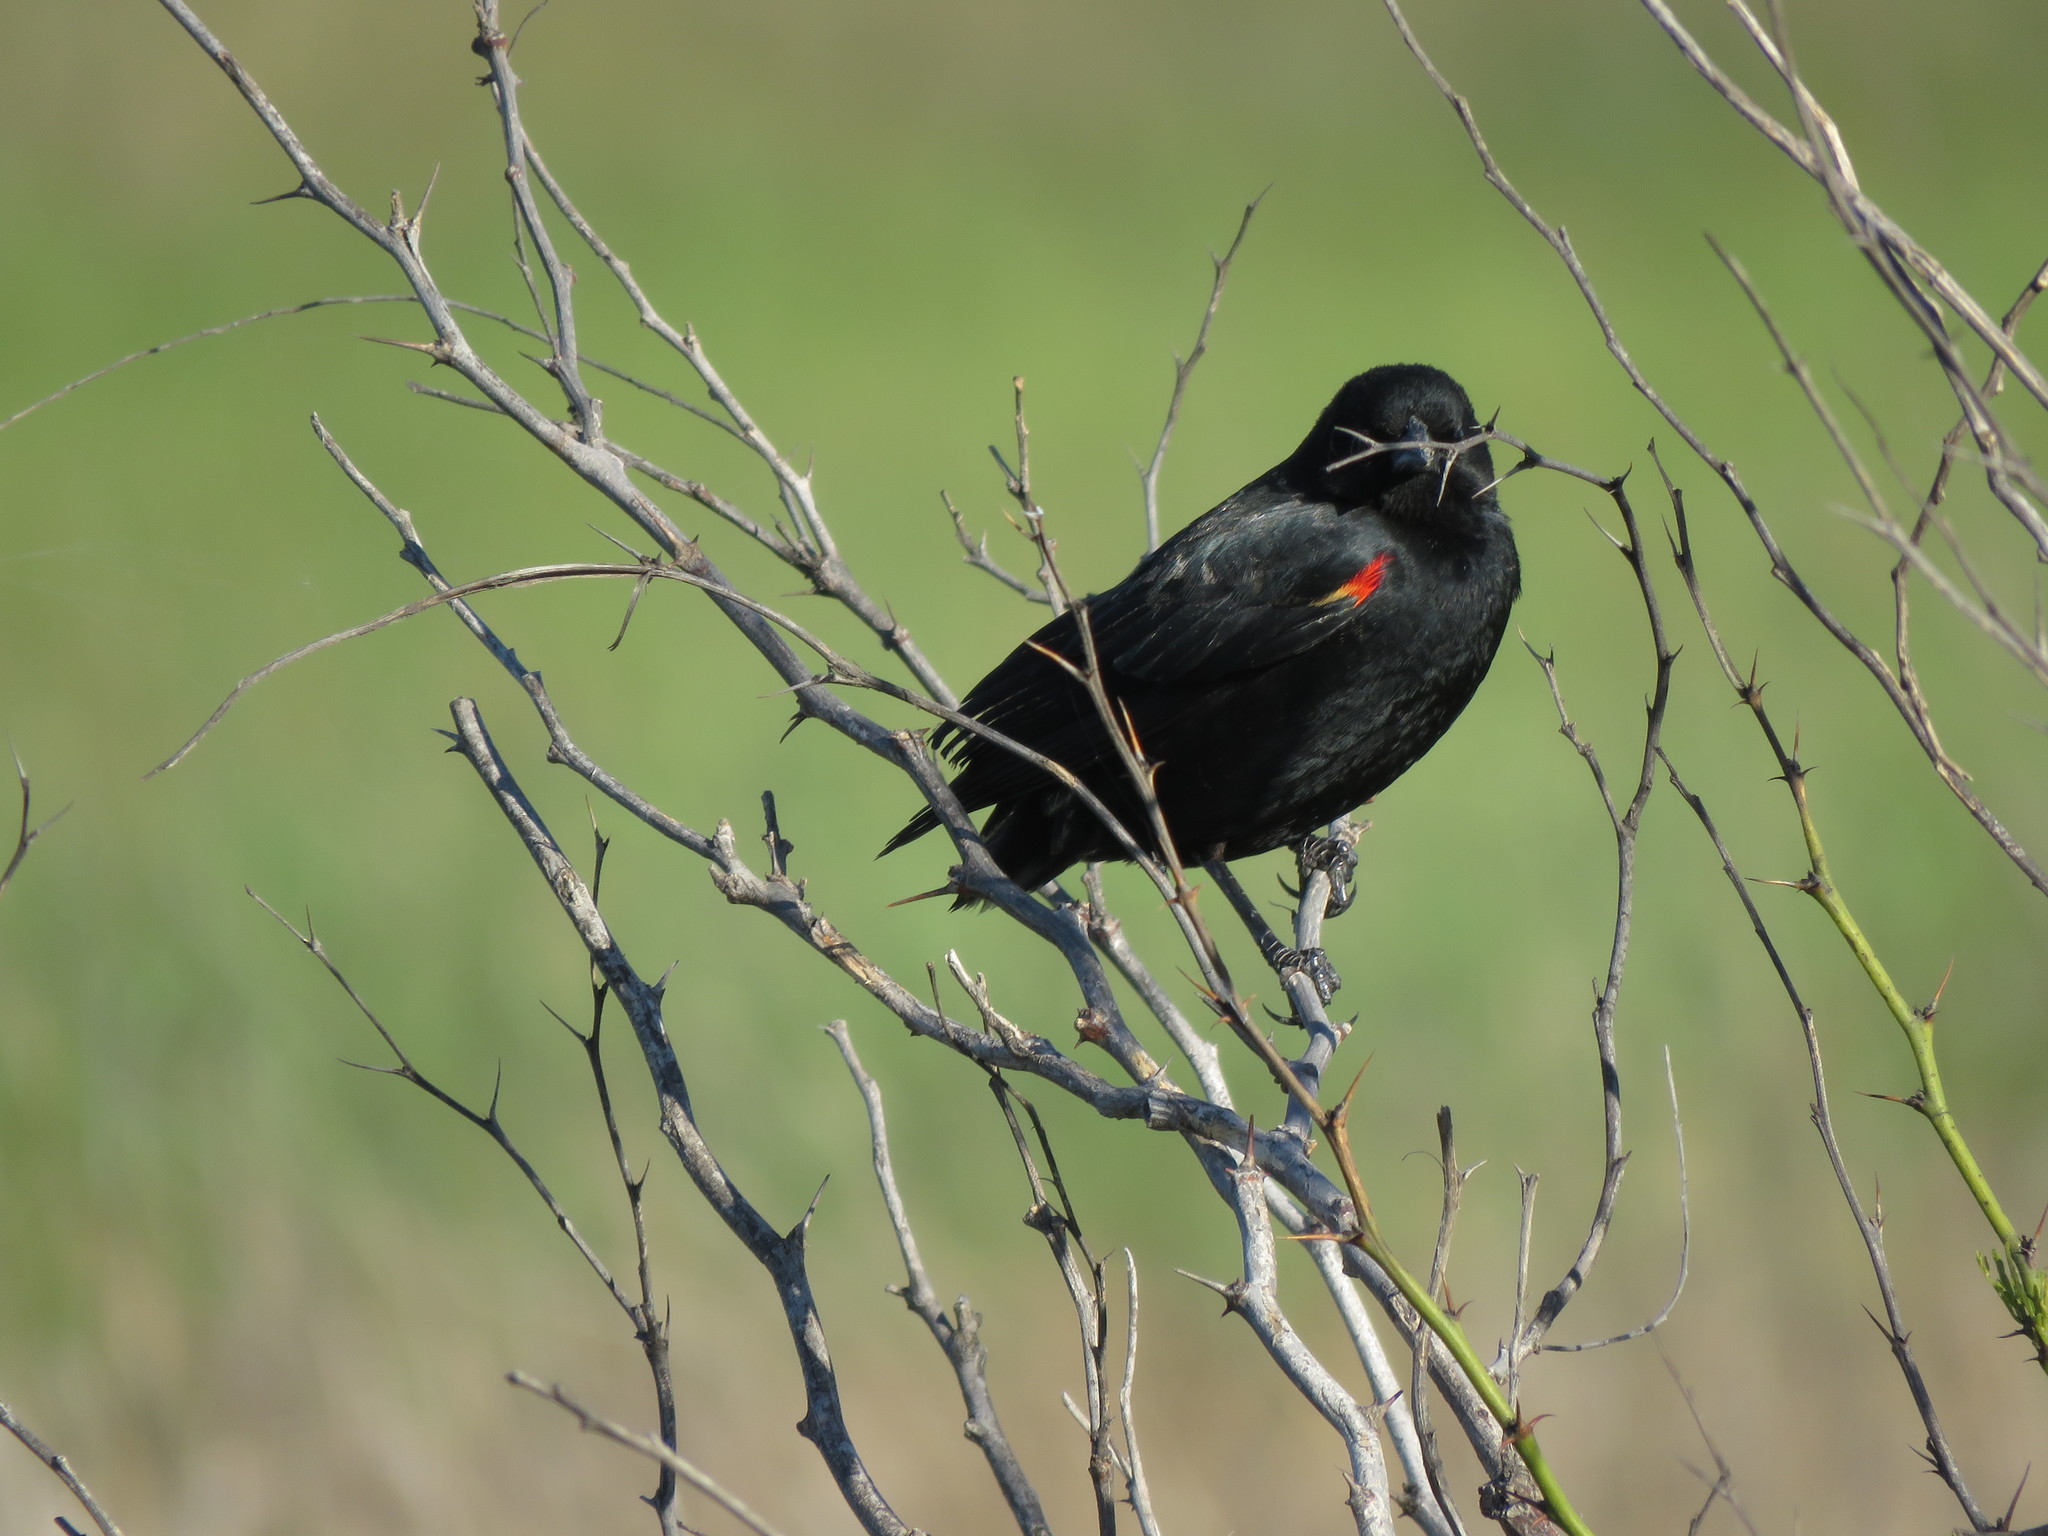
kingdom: Animalia
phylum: Chordata
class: Aves
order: Passeriformes
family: Icteridae
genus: Agelaius
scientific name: Agelaius phoeniceus
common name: Red-winged blackbird
